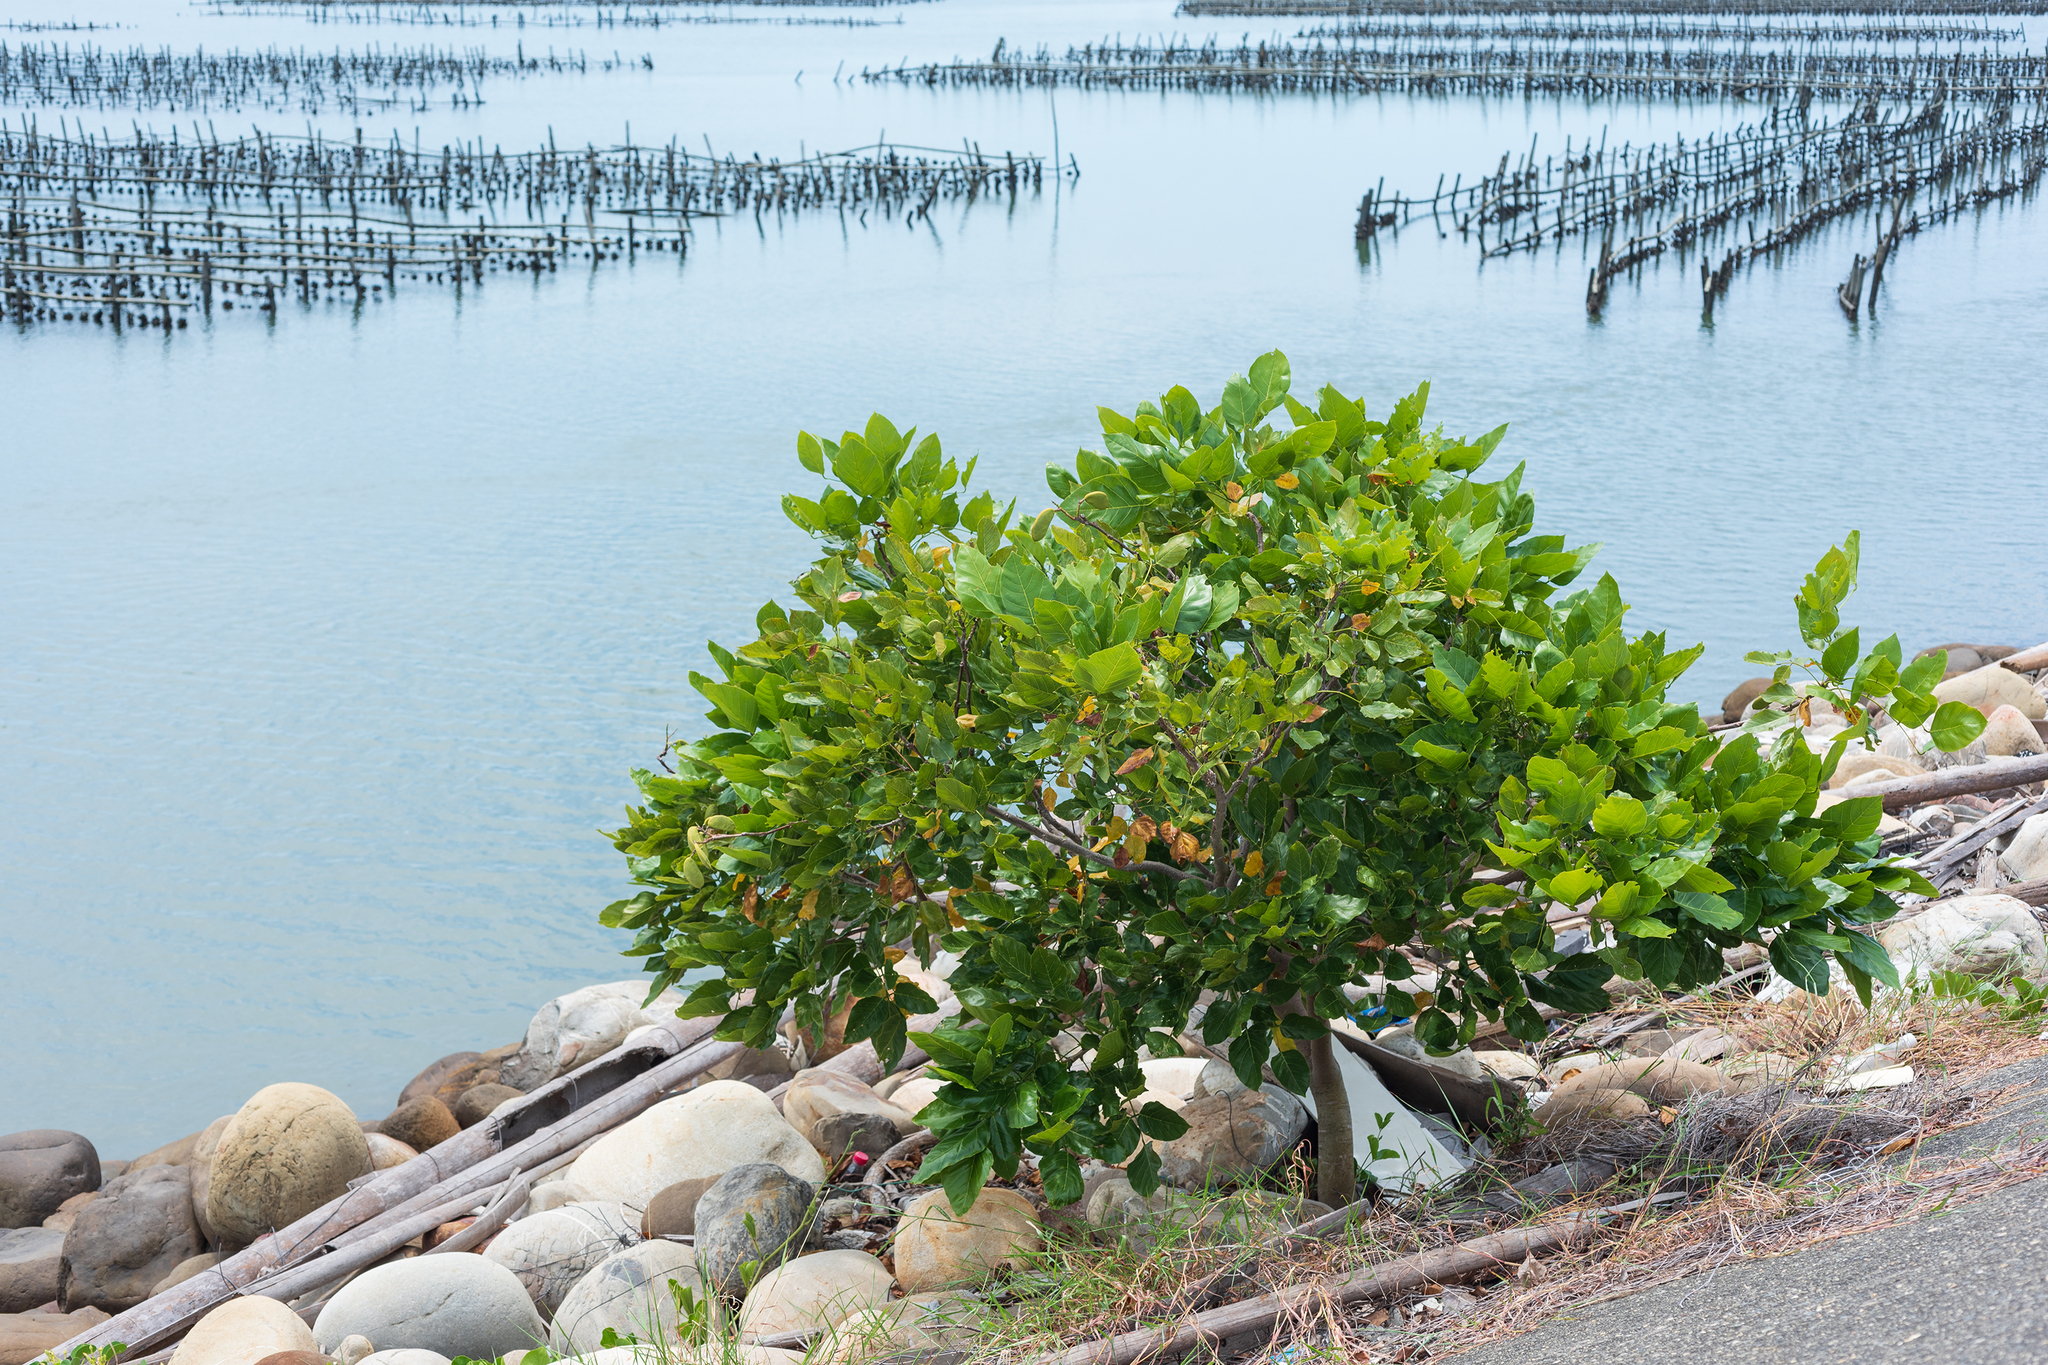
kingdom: Plantae
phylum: Tracheophyta
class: Magnoliopsida
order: Fabales
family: Fabaceae
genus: Pongamia
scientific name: Pongamia pinnata
